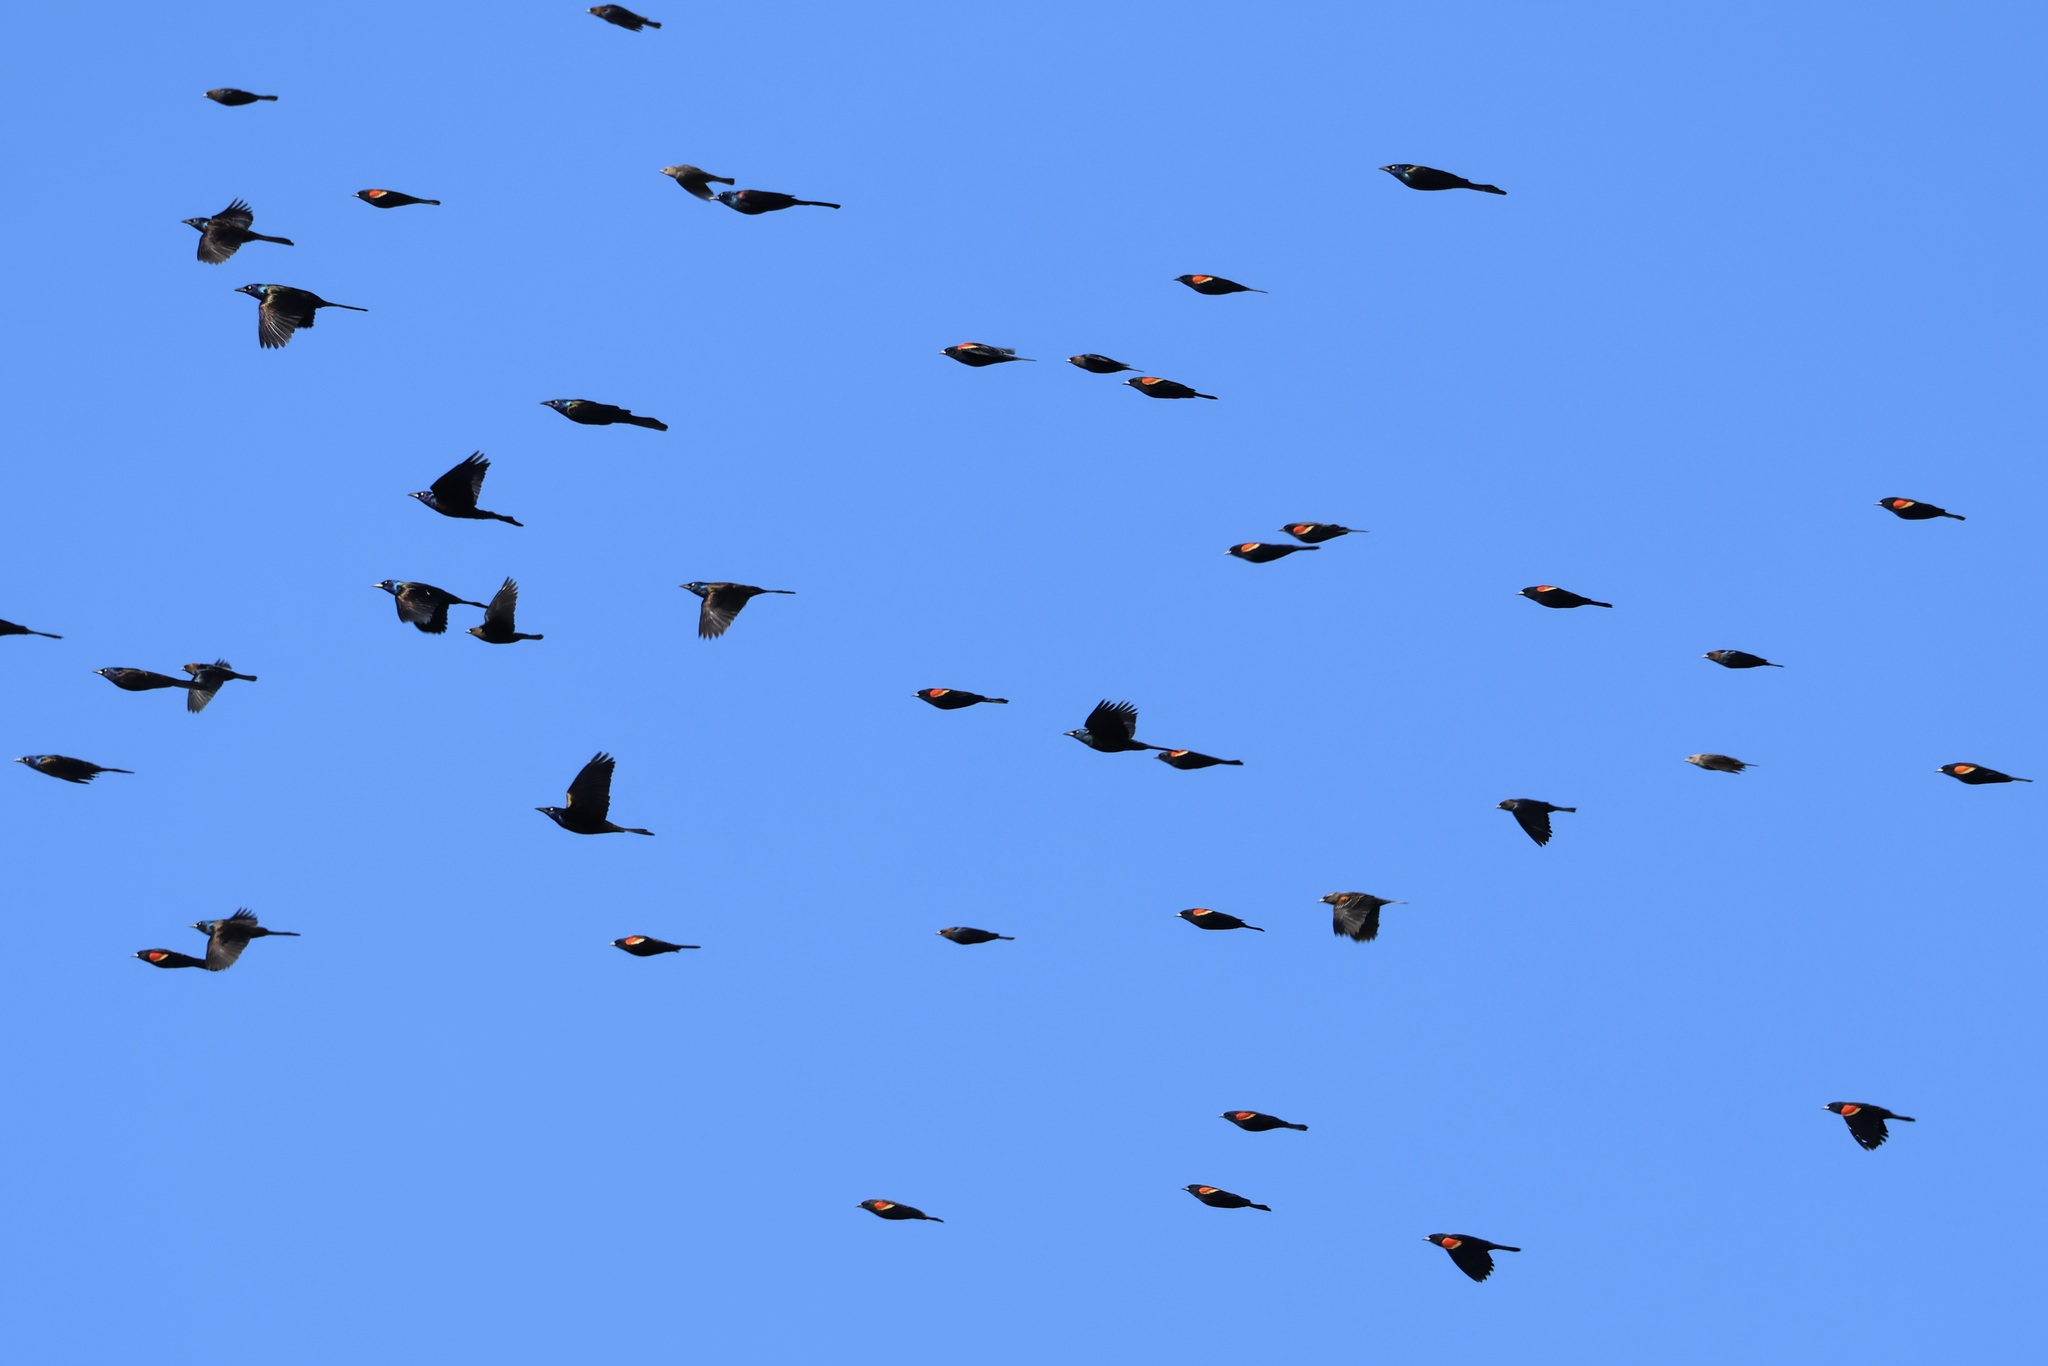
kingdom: Animalia
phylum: Chordata
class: Aves
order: Passeriformes
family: Icteridae
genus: Agelaius
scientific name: Agelaius phoeniceus
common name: Red-winged blackbird
